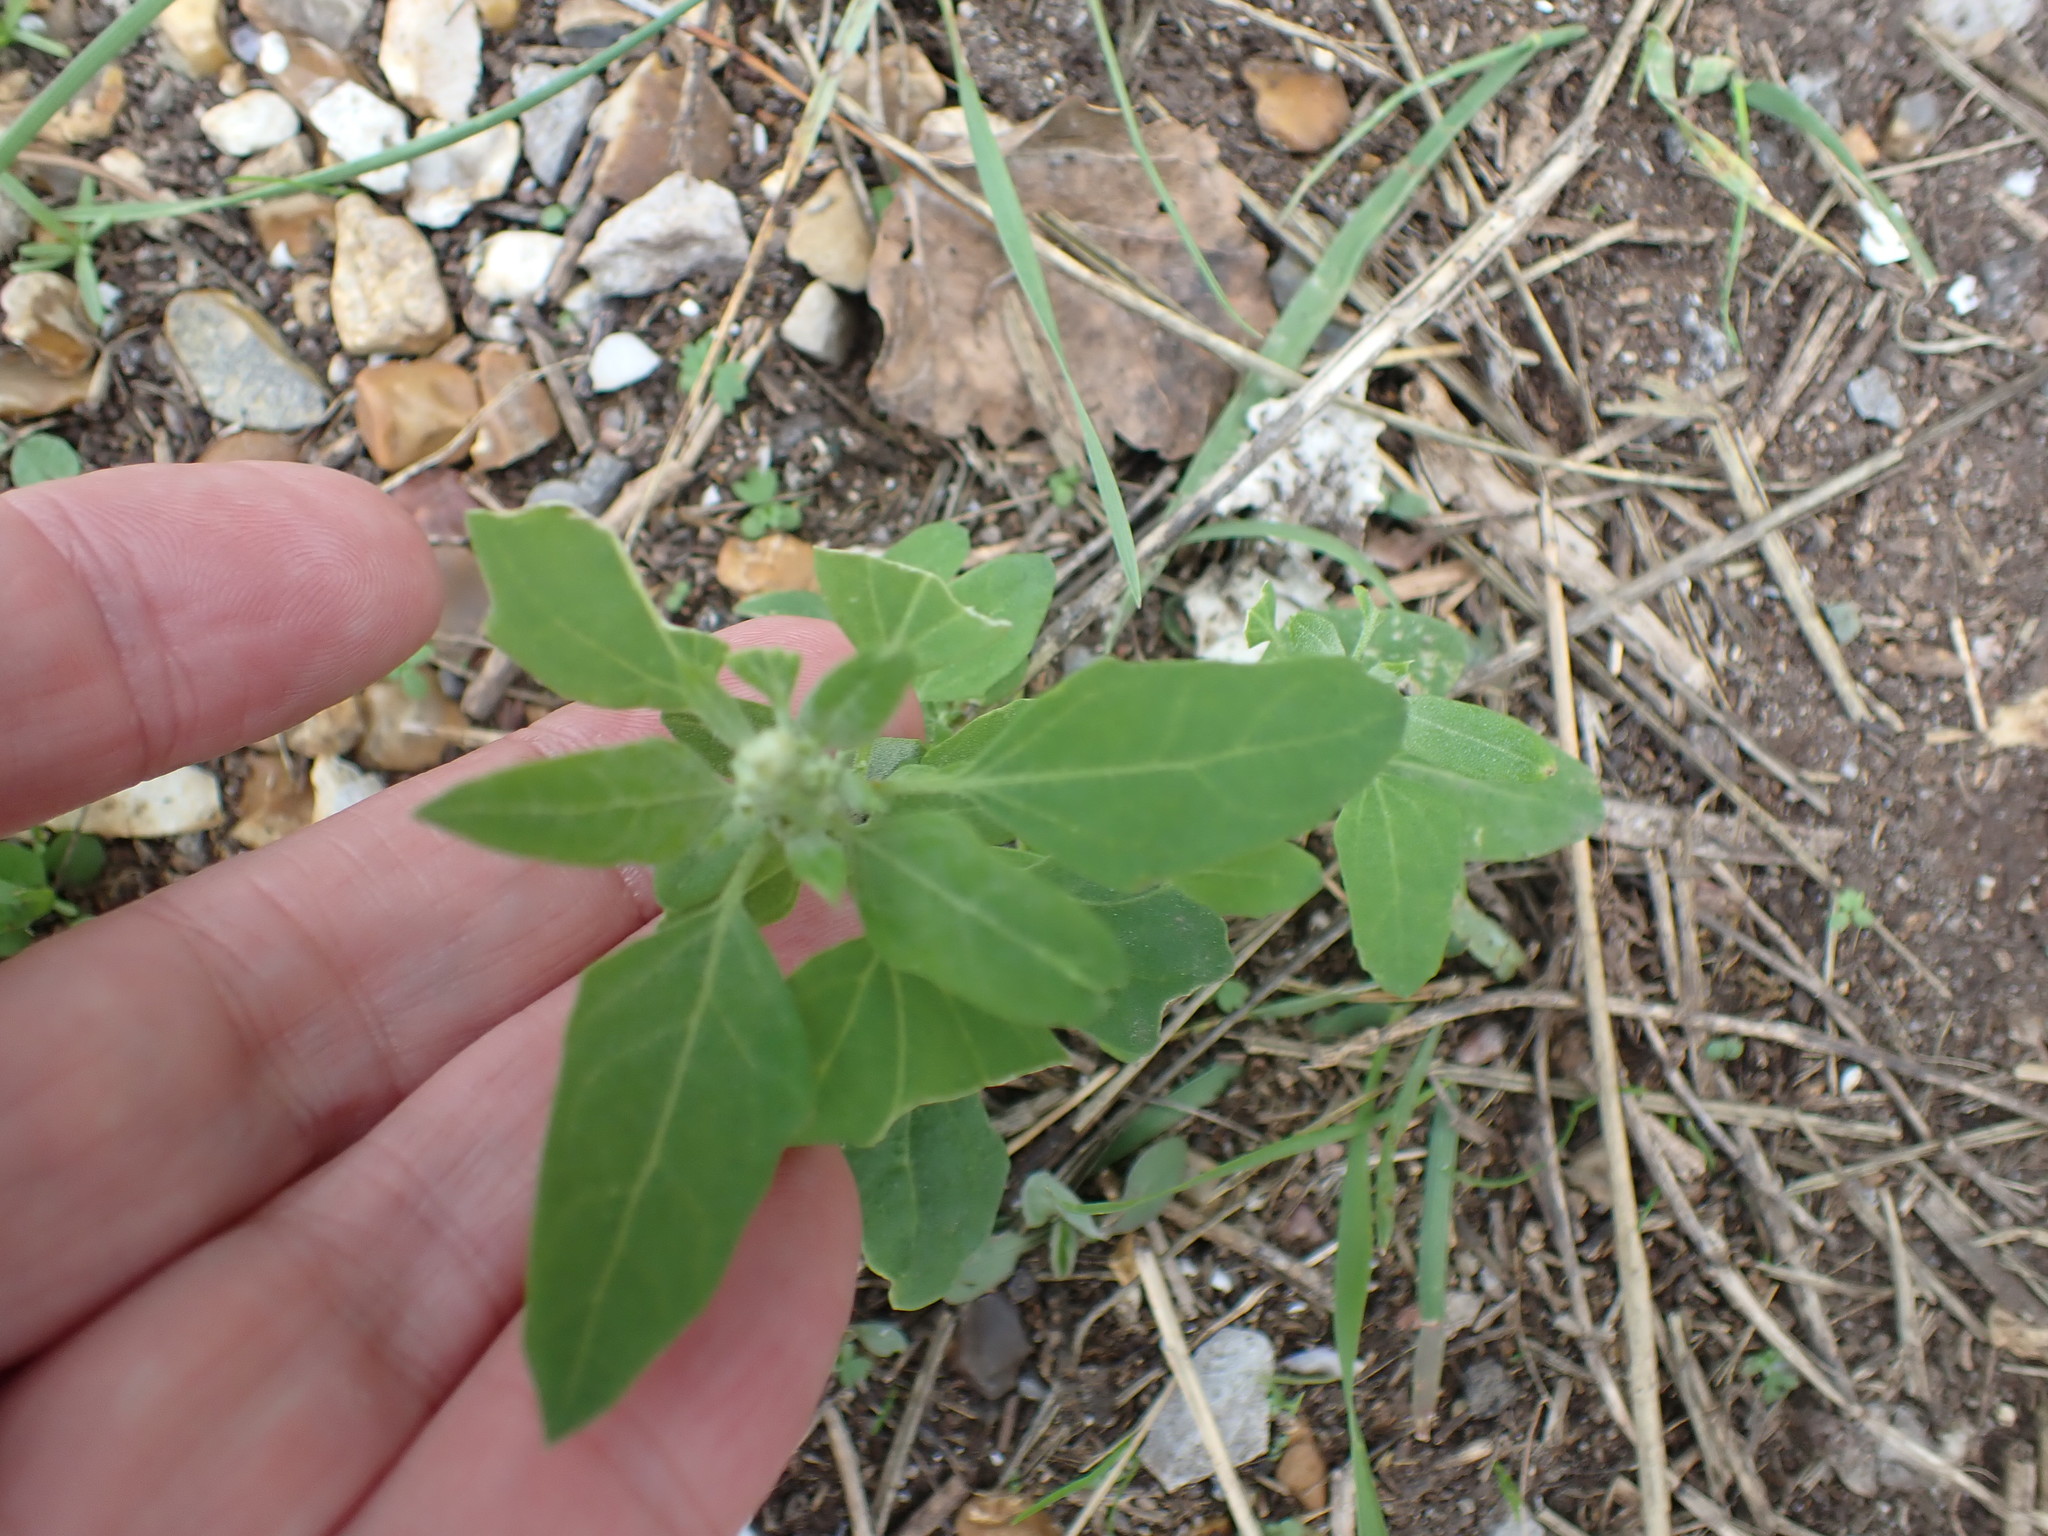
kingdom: Plantae
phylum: Tracheophyta
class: Magnoliopsida
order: Caryophyllales
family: Amaranthaceae
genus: Chenopodium
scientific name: Chenopodium album
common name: Fat-hen
